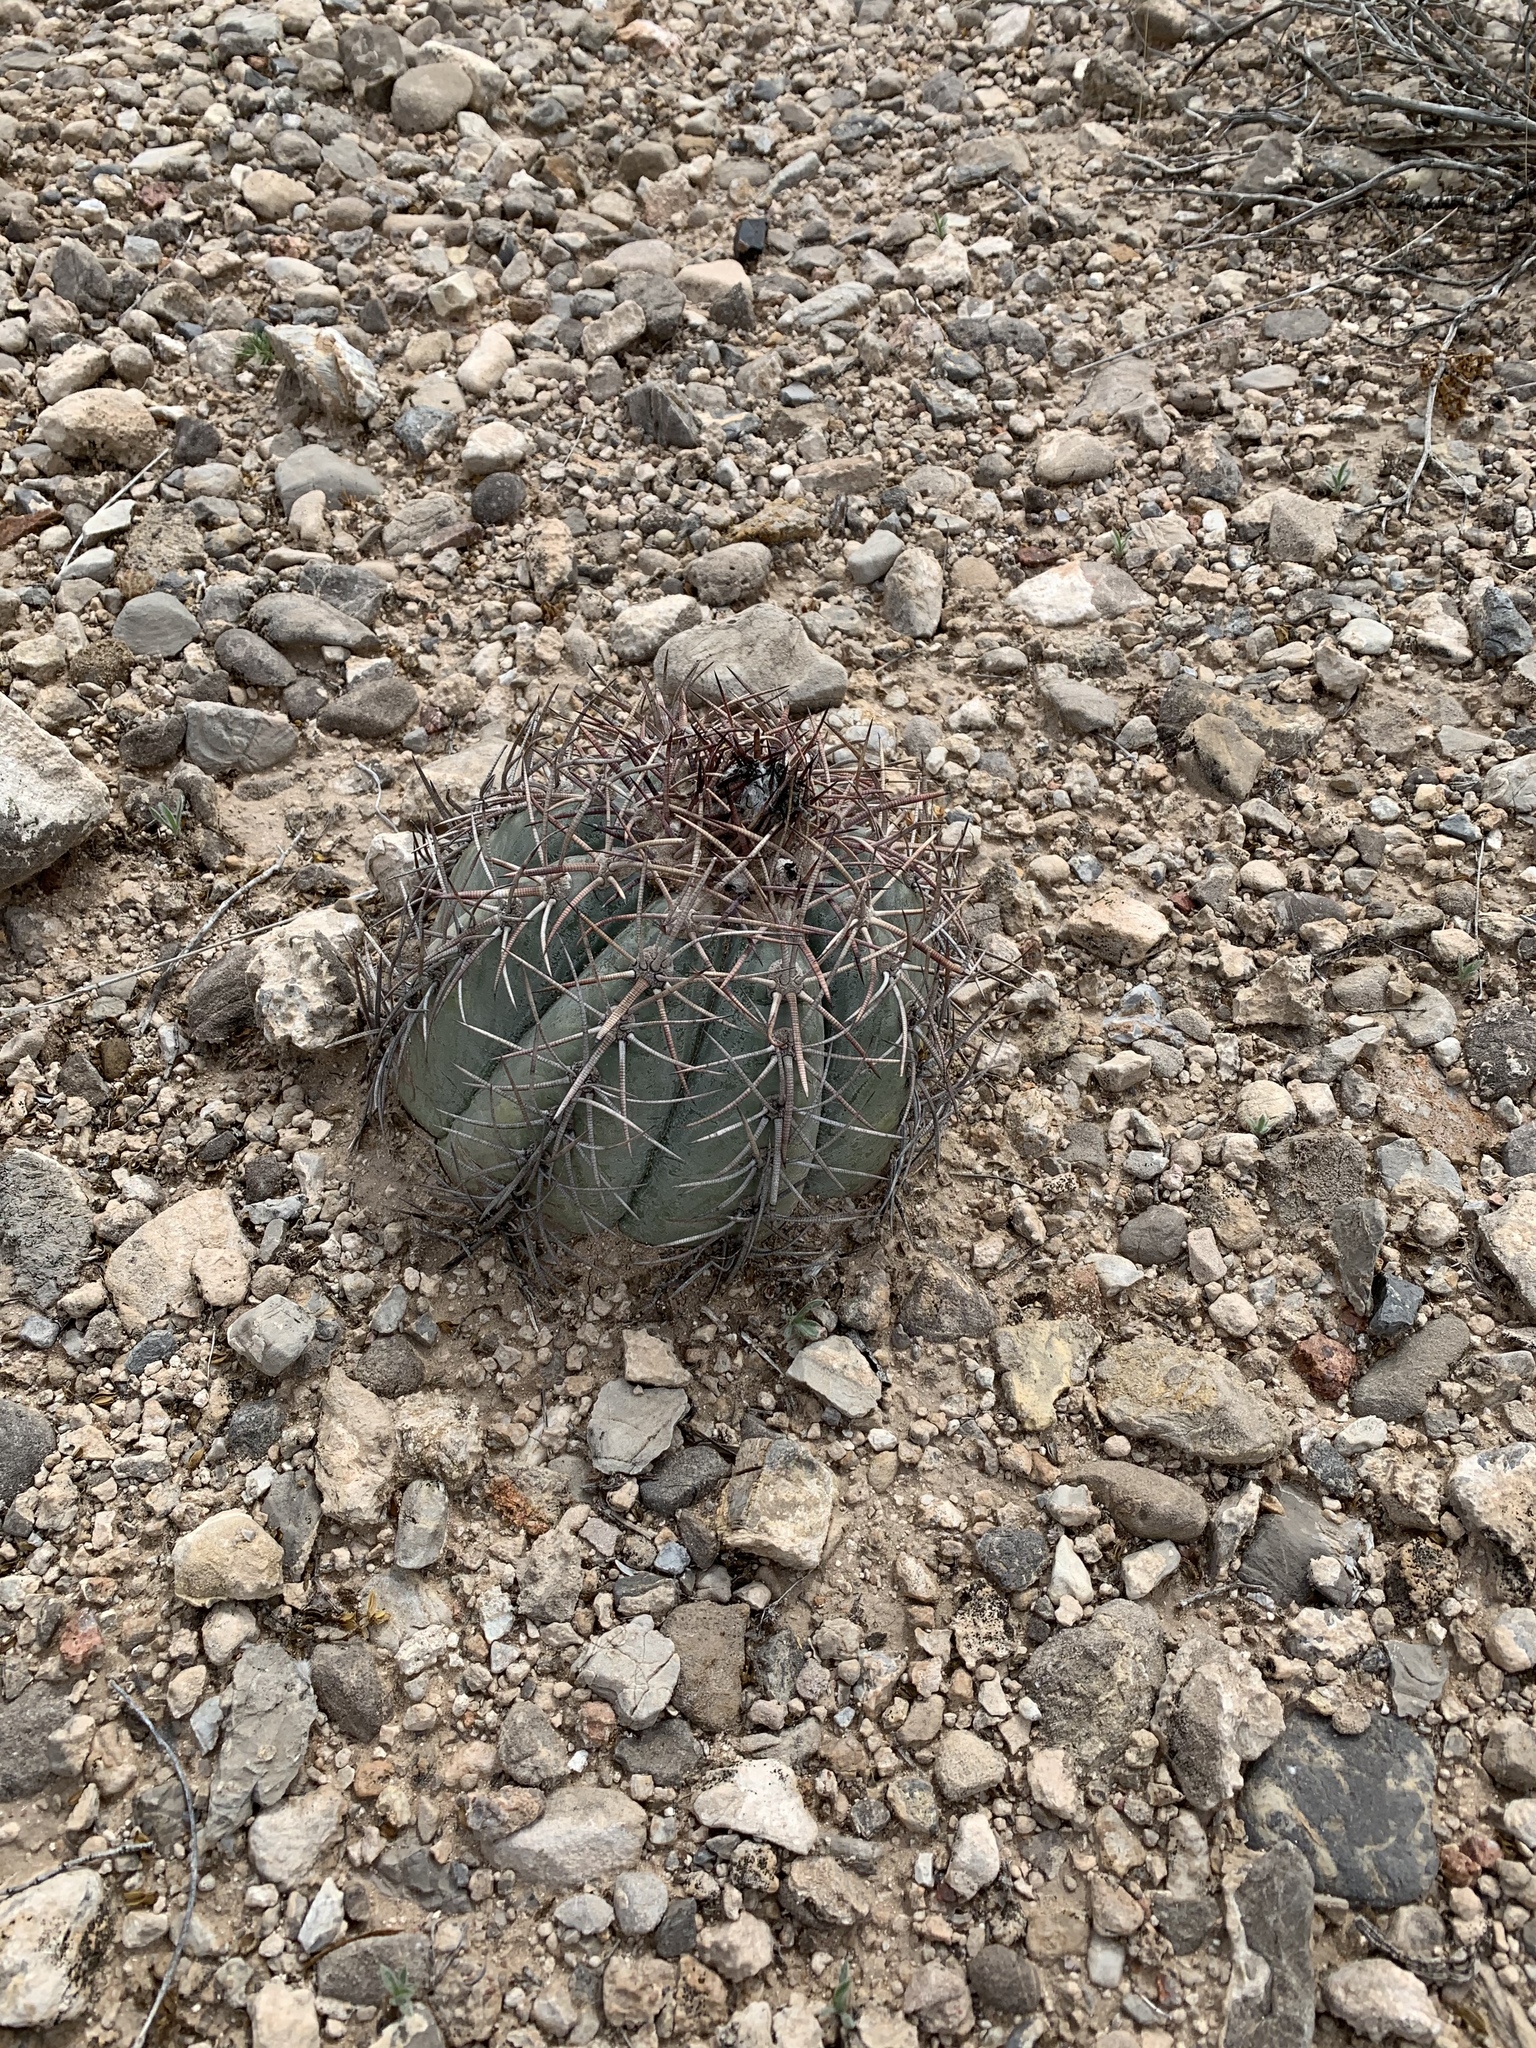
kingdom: Plantae
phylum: Tracheophyta
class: Magnoliopsida
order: Caryophyllales
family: Cactaceae
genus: Echinocactus
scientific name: Echinocactus horizonthalonius
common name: Devilshead
